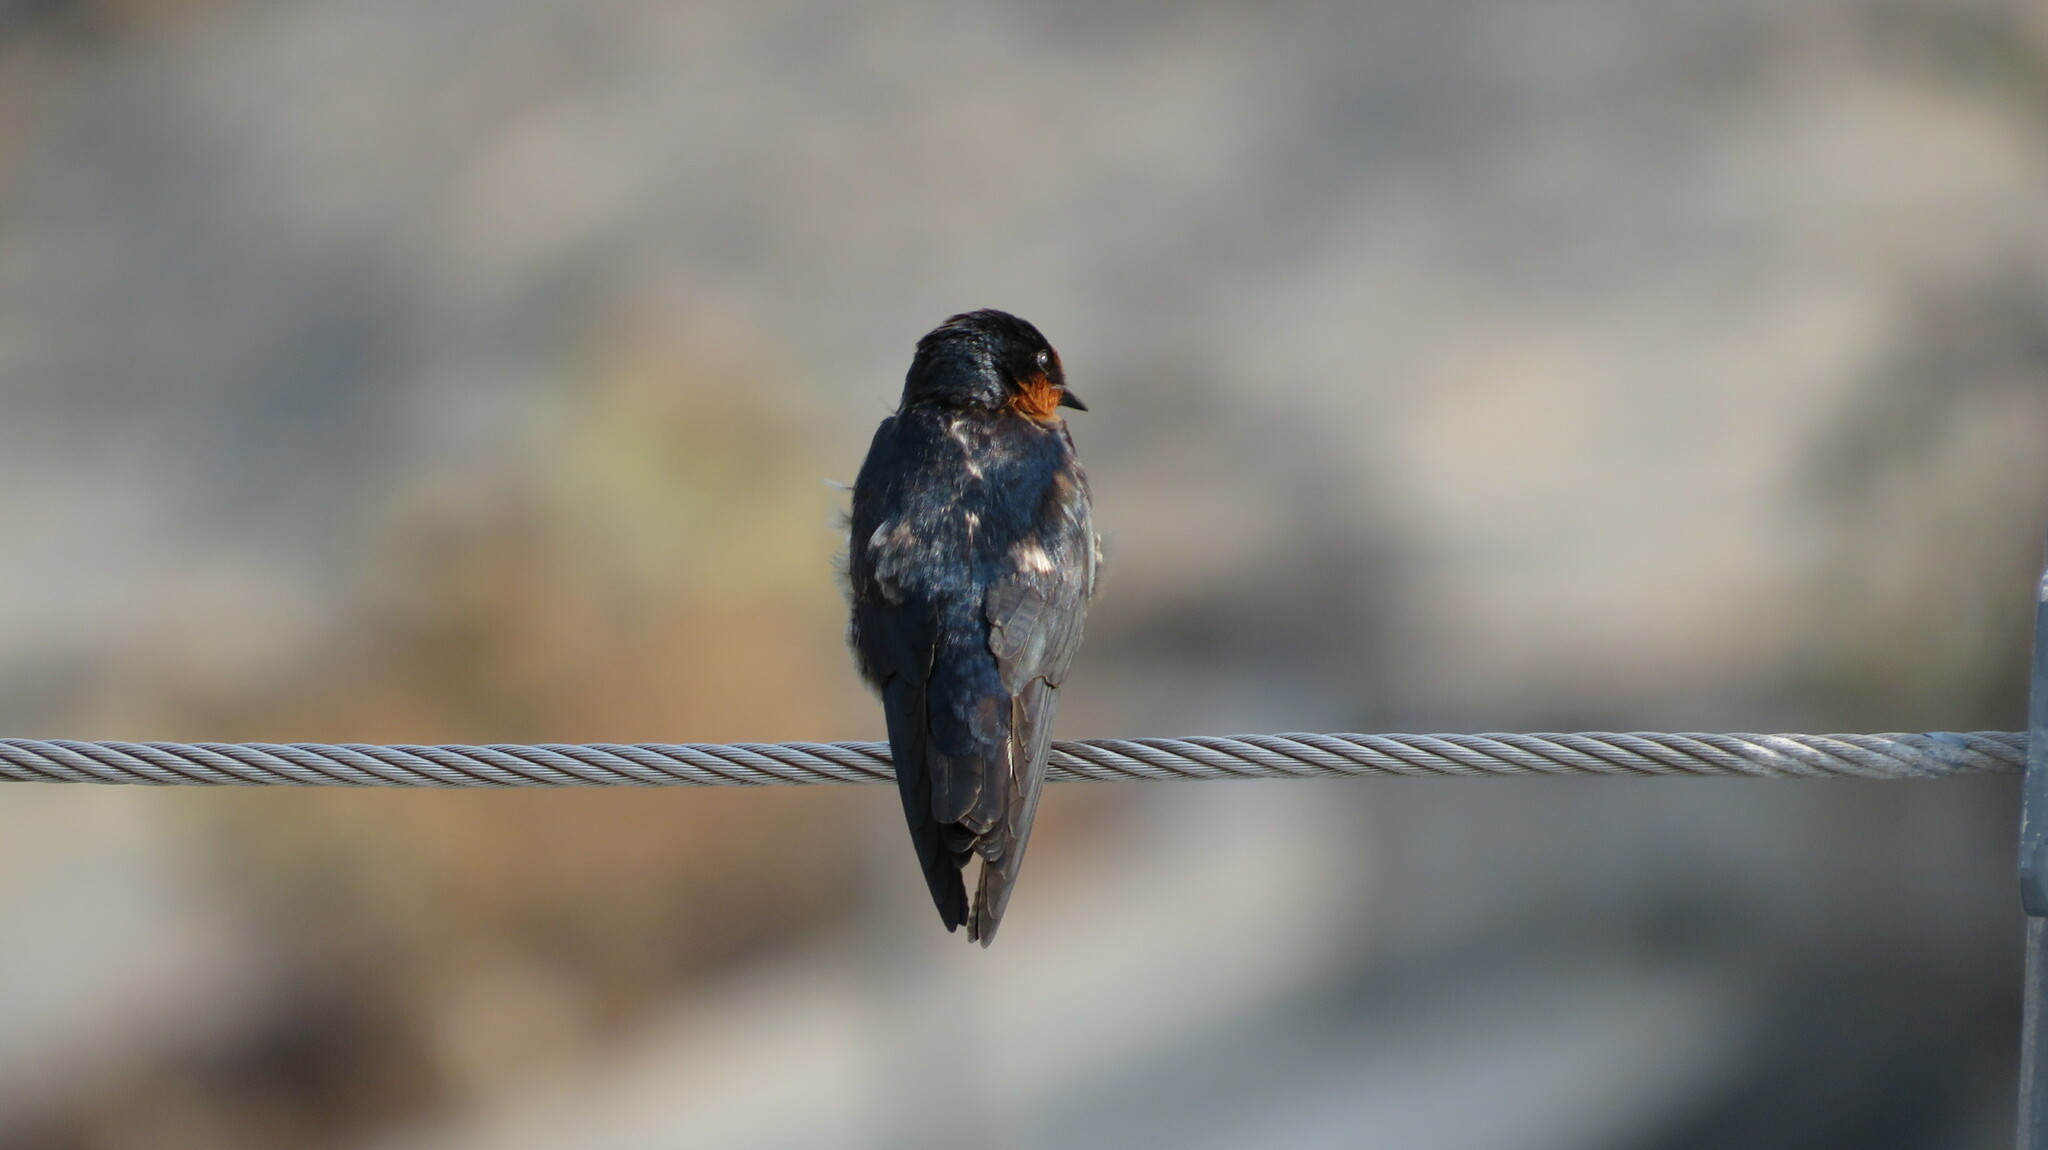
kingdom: Animalia
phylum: Chordata
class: Aves
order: Passeriformes
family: Hirundinidae
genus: Hirundo
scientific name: Hirundo tahitica
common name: Pacific swallow
